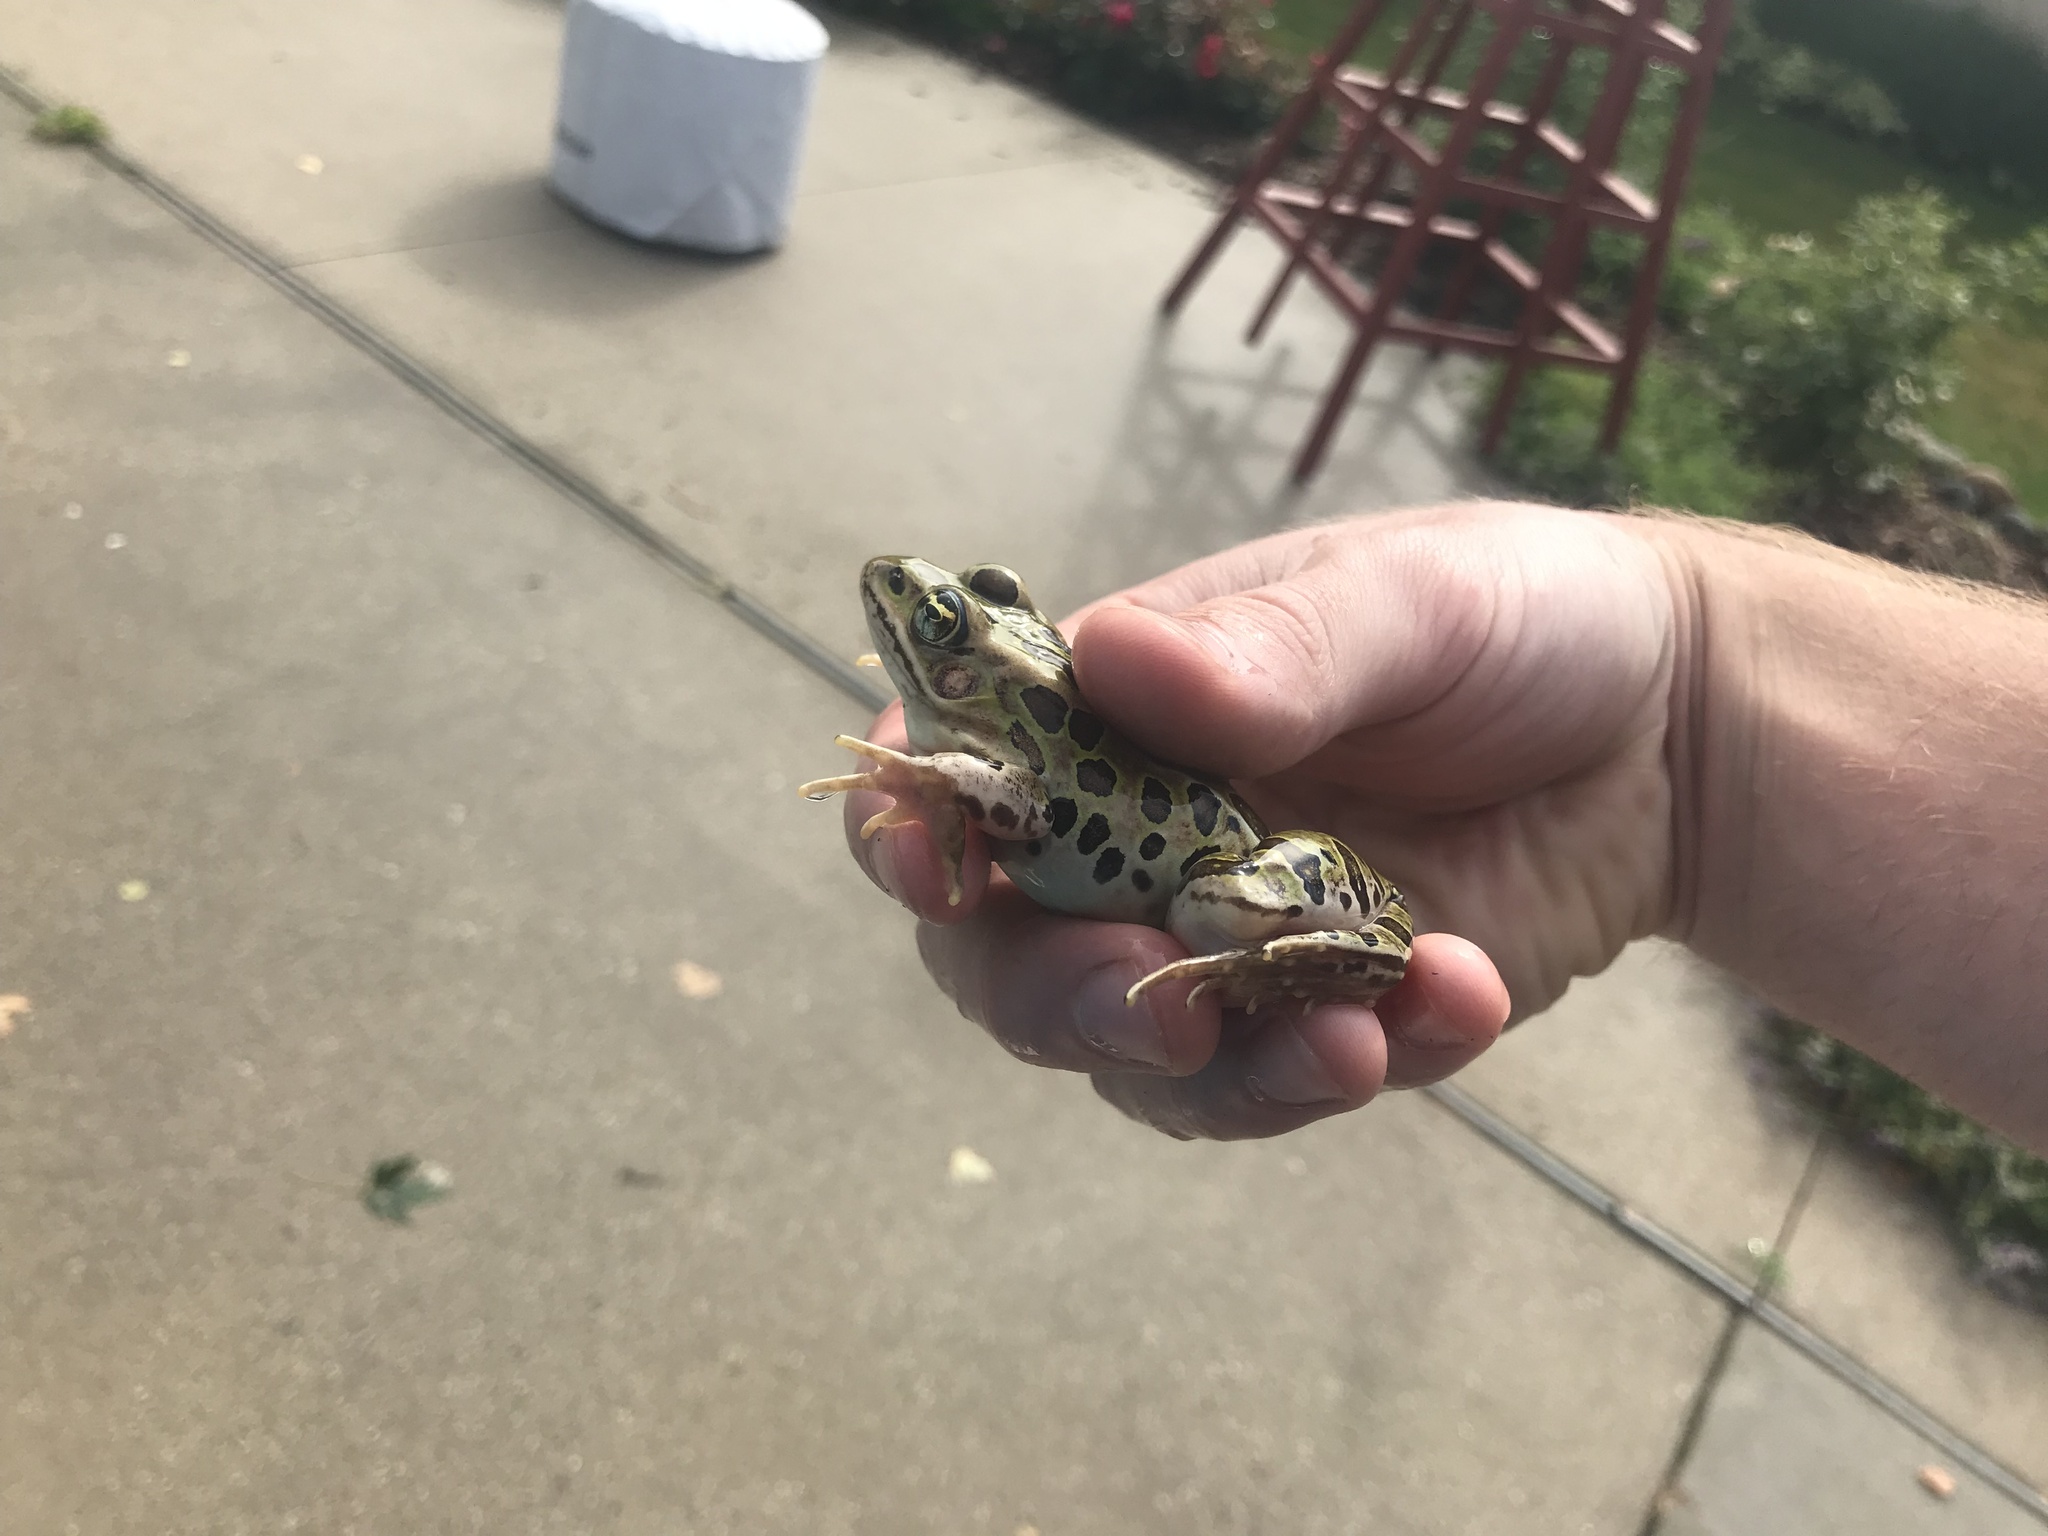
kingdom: Animalia
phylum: Chordata
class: Amphibia
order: Anura
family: Ranidae
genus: Lithobates
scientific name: Lithobates pipiens
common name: Northern leopard frog
